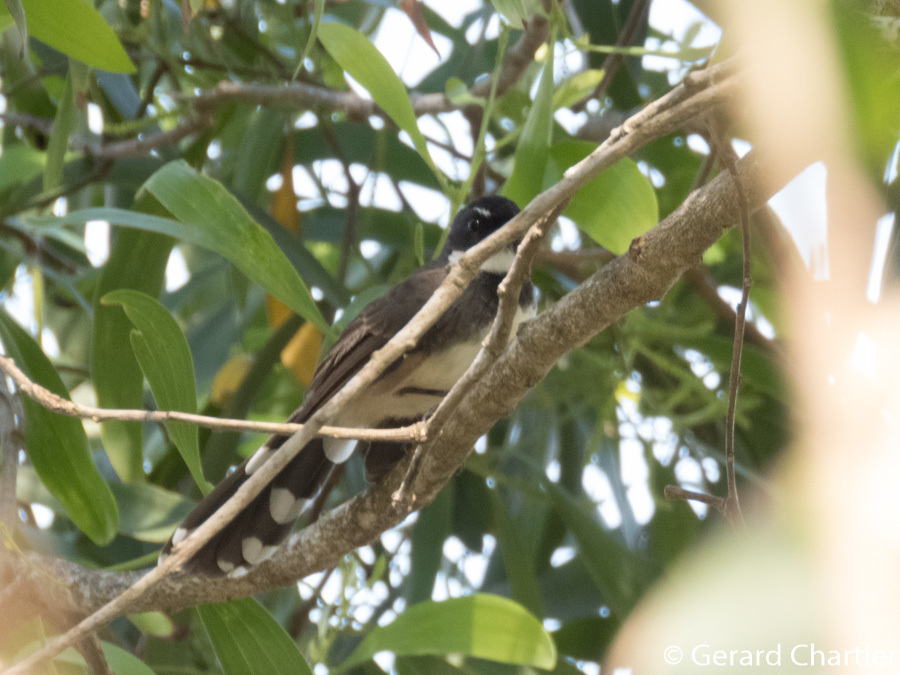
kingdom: Animalia
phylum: Chordata
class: Aves
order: Passeriformes
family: Rhipiduridae
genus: Rhipidura
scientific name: Rhipidura javanica
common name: Pied fantail
